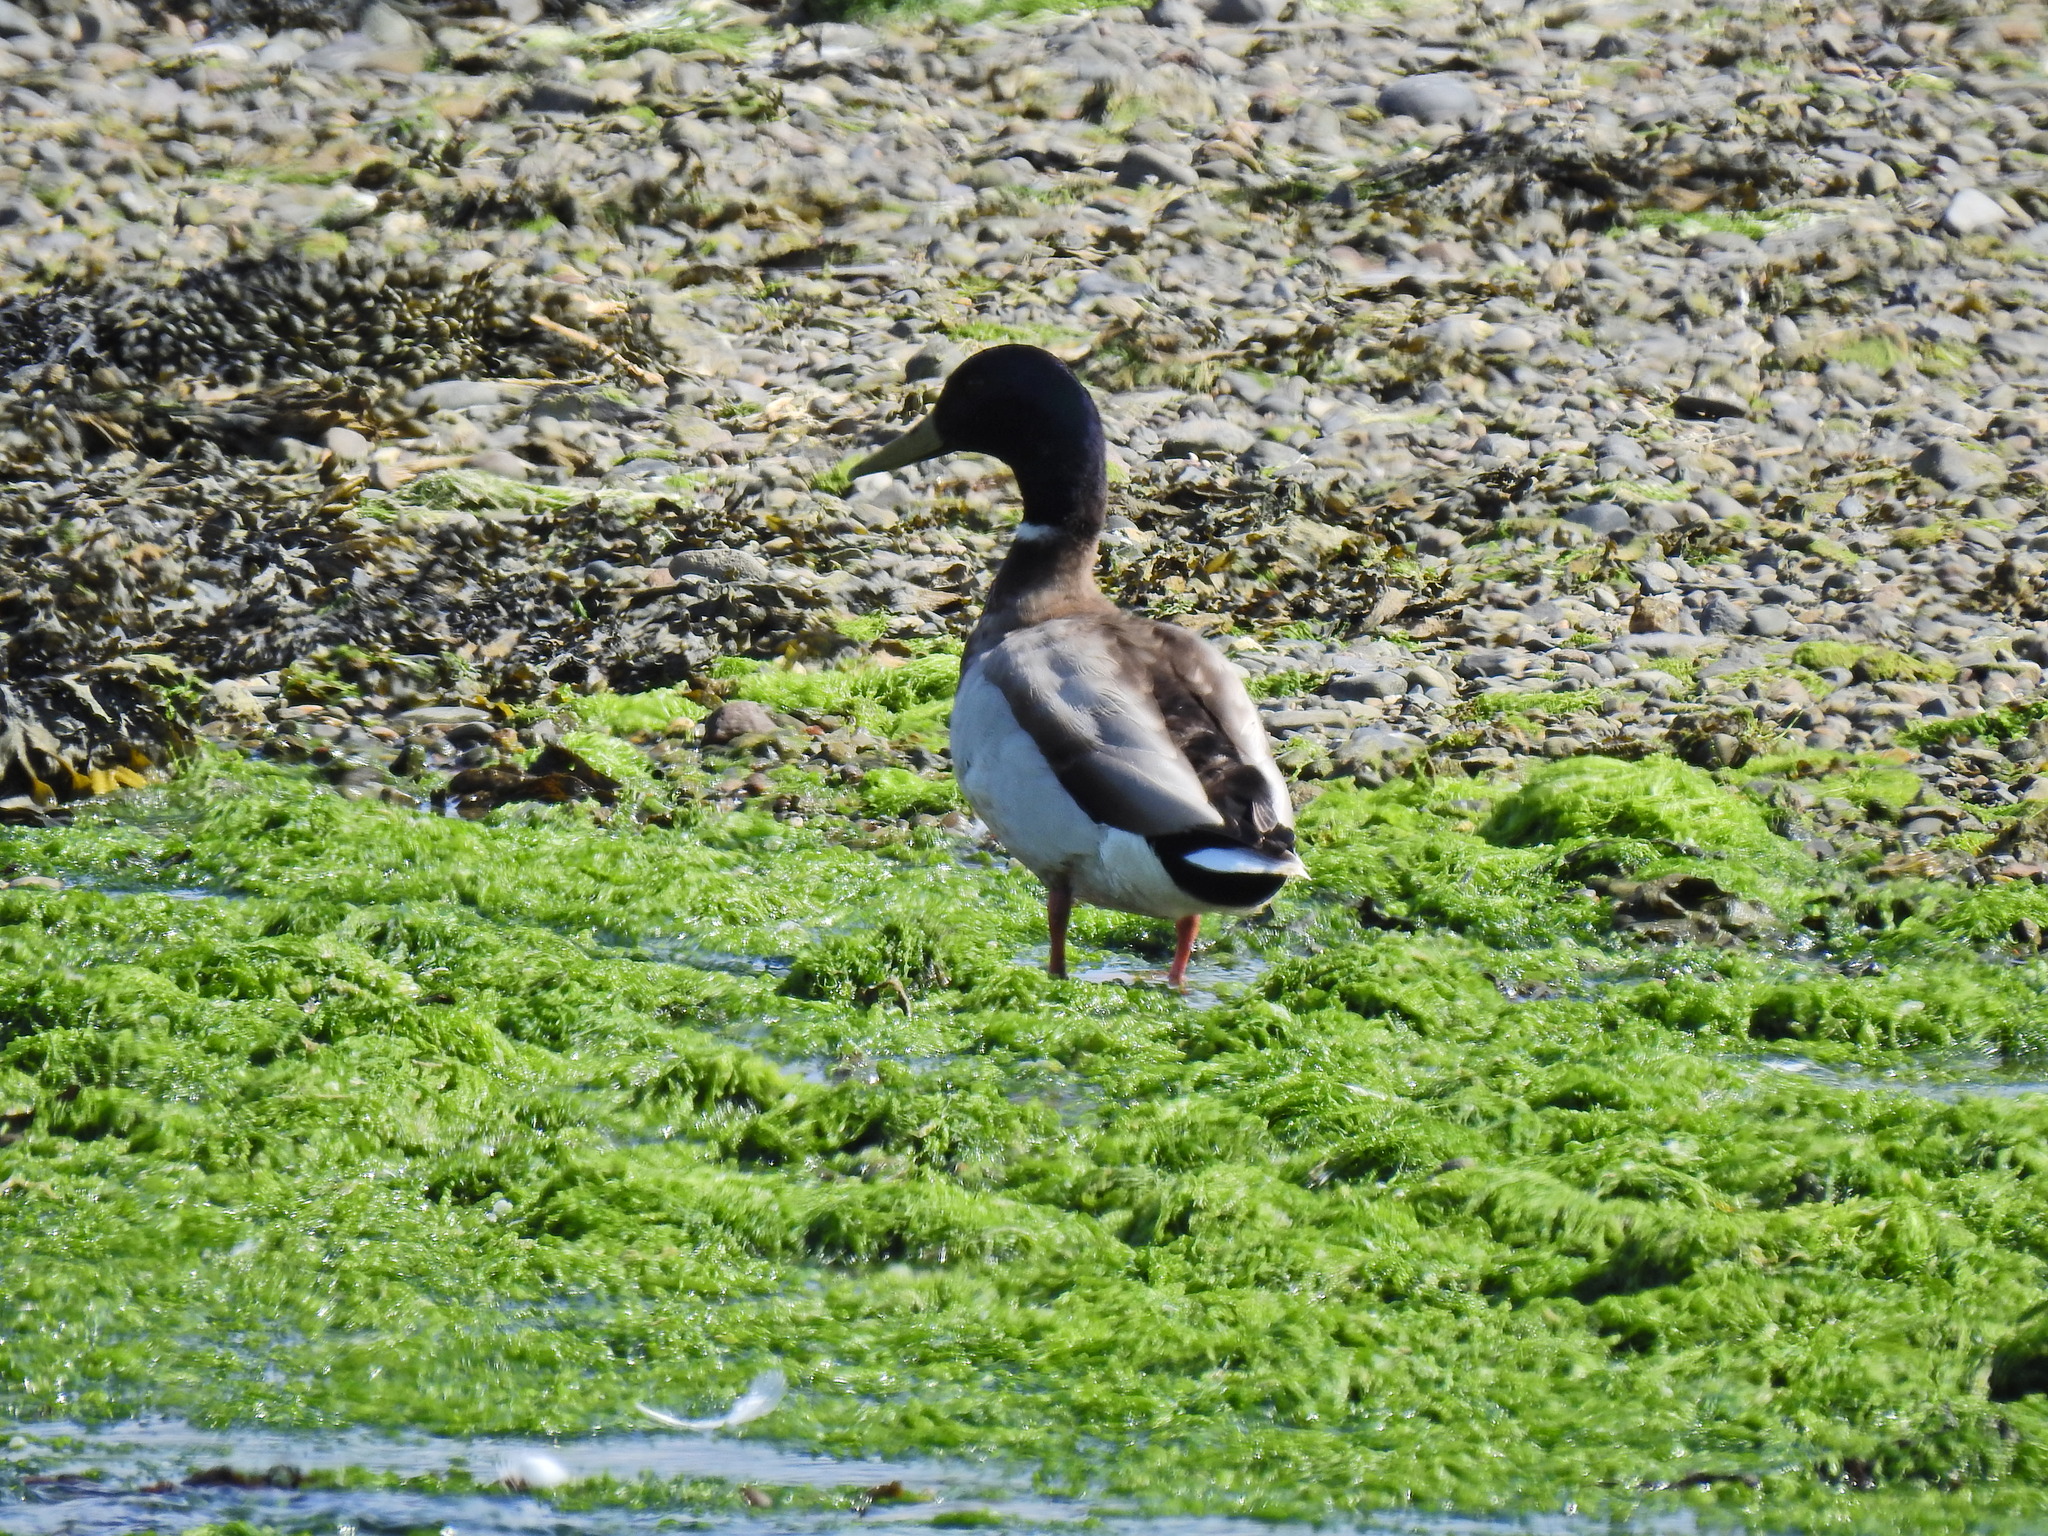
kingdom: Animalia
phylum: Chordata
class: Aves
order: Anseriformes
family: Anatidae
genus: Anas
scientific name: Anas platyrhynchos
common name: Mallard
